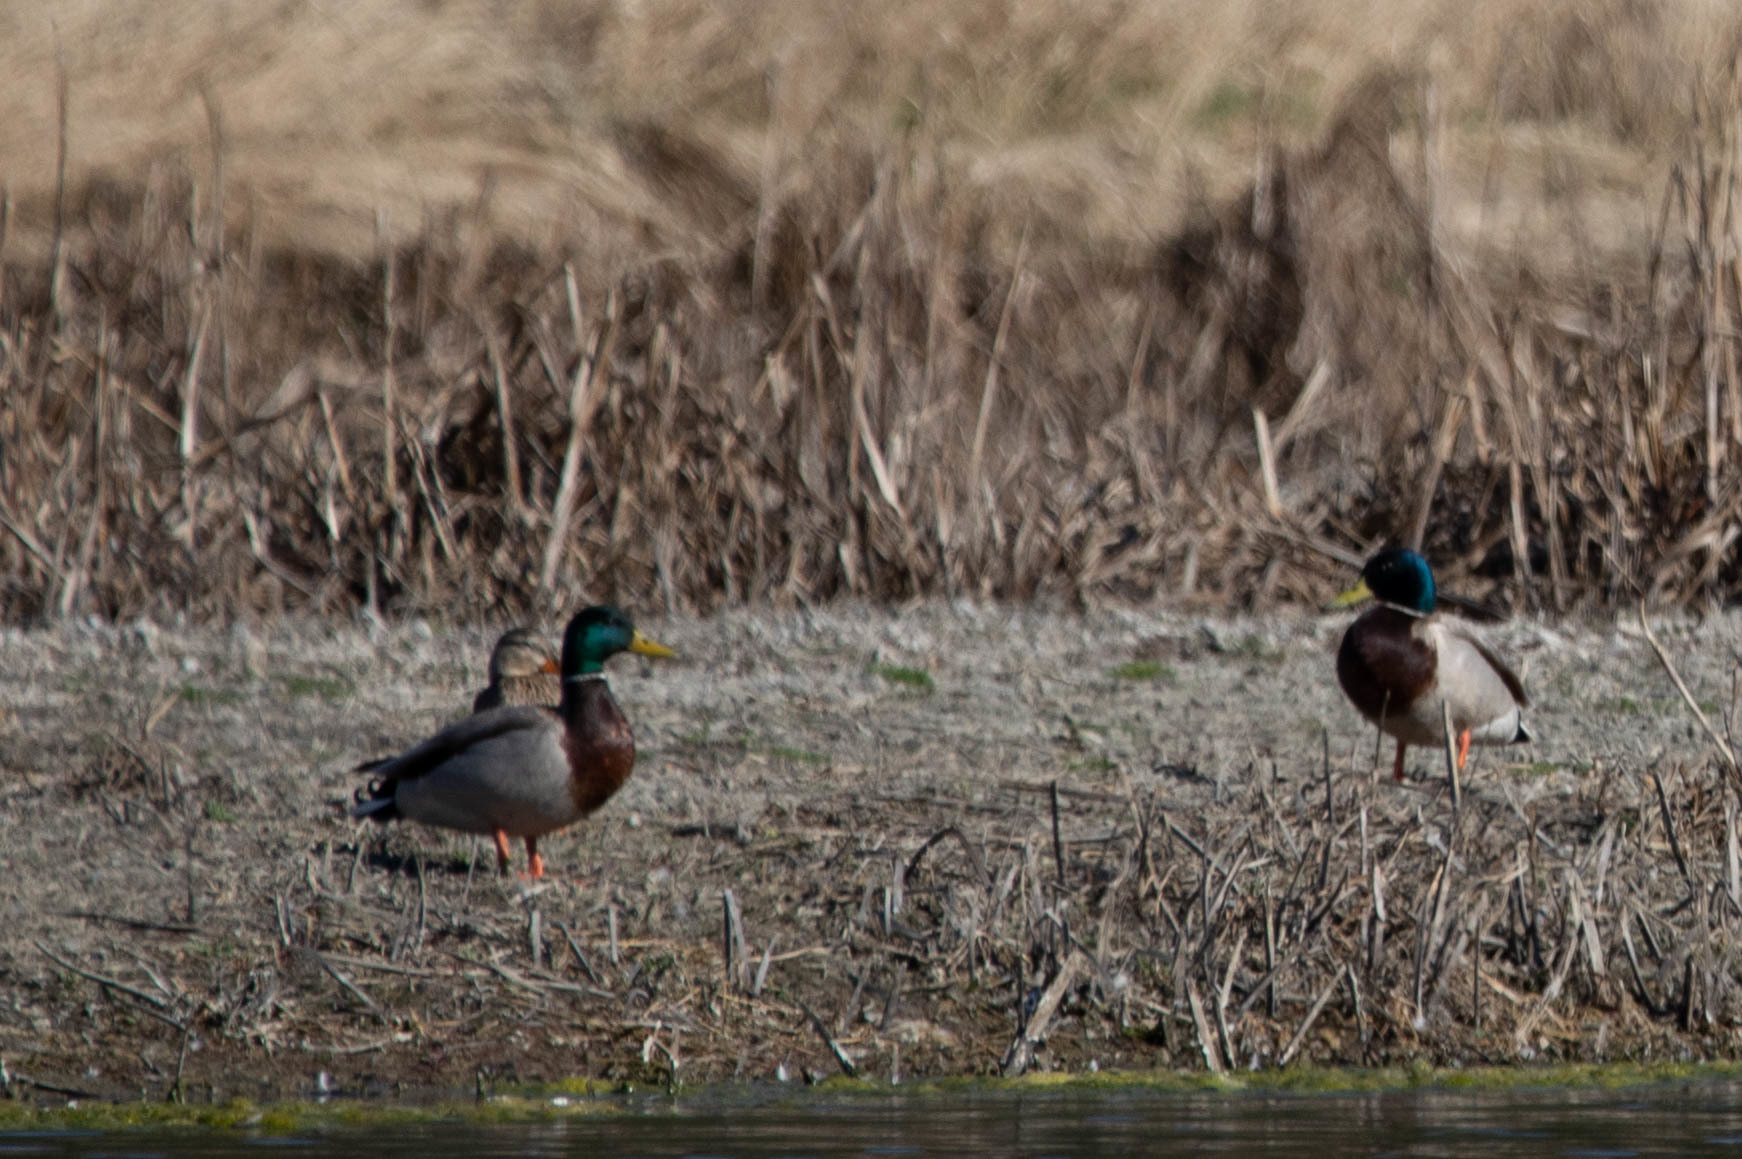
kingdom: Animalia
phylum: Chordata
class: Aves
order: Anseriformes
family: Anatidae
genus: Anas
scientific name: Anas platyrhynchos
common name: Mallard
